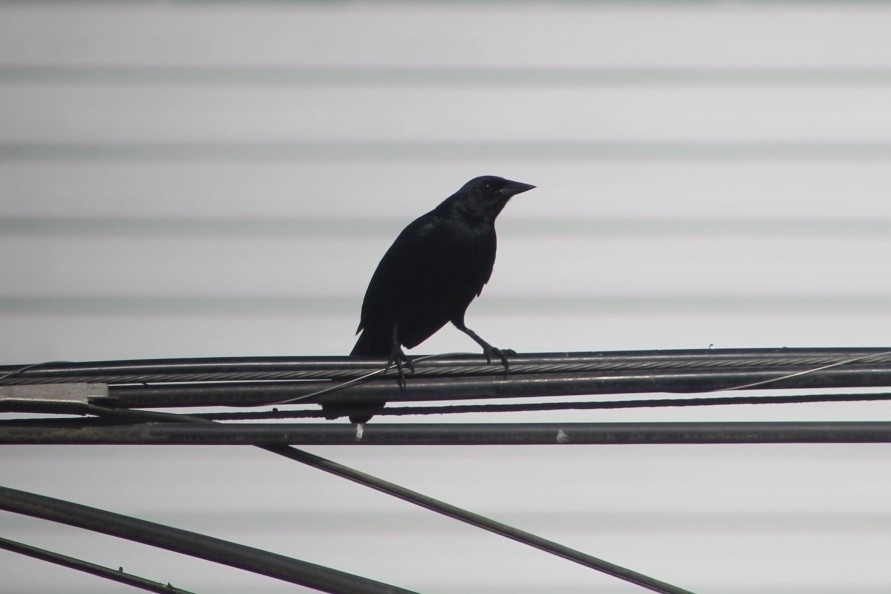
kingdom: Animalia
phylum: Chordata
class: Aves
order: Passeriformes
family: Icteridae
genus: Dives
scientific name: Dives warczewiczi
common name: Scrub blackbird
